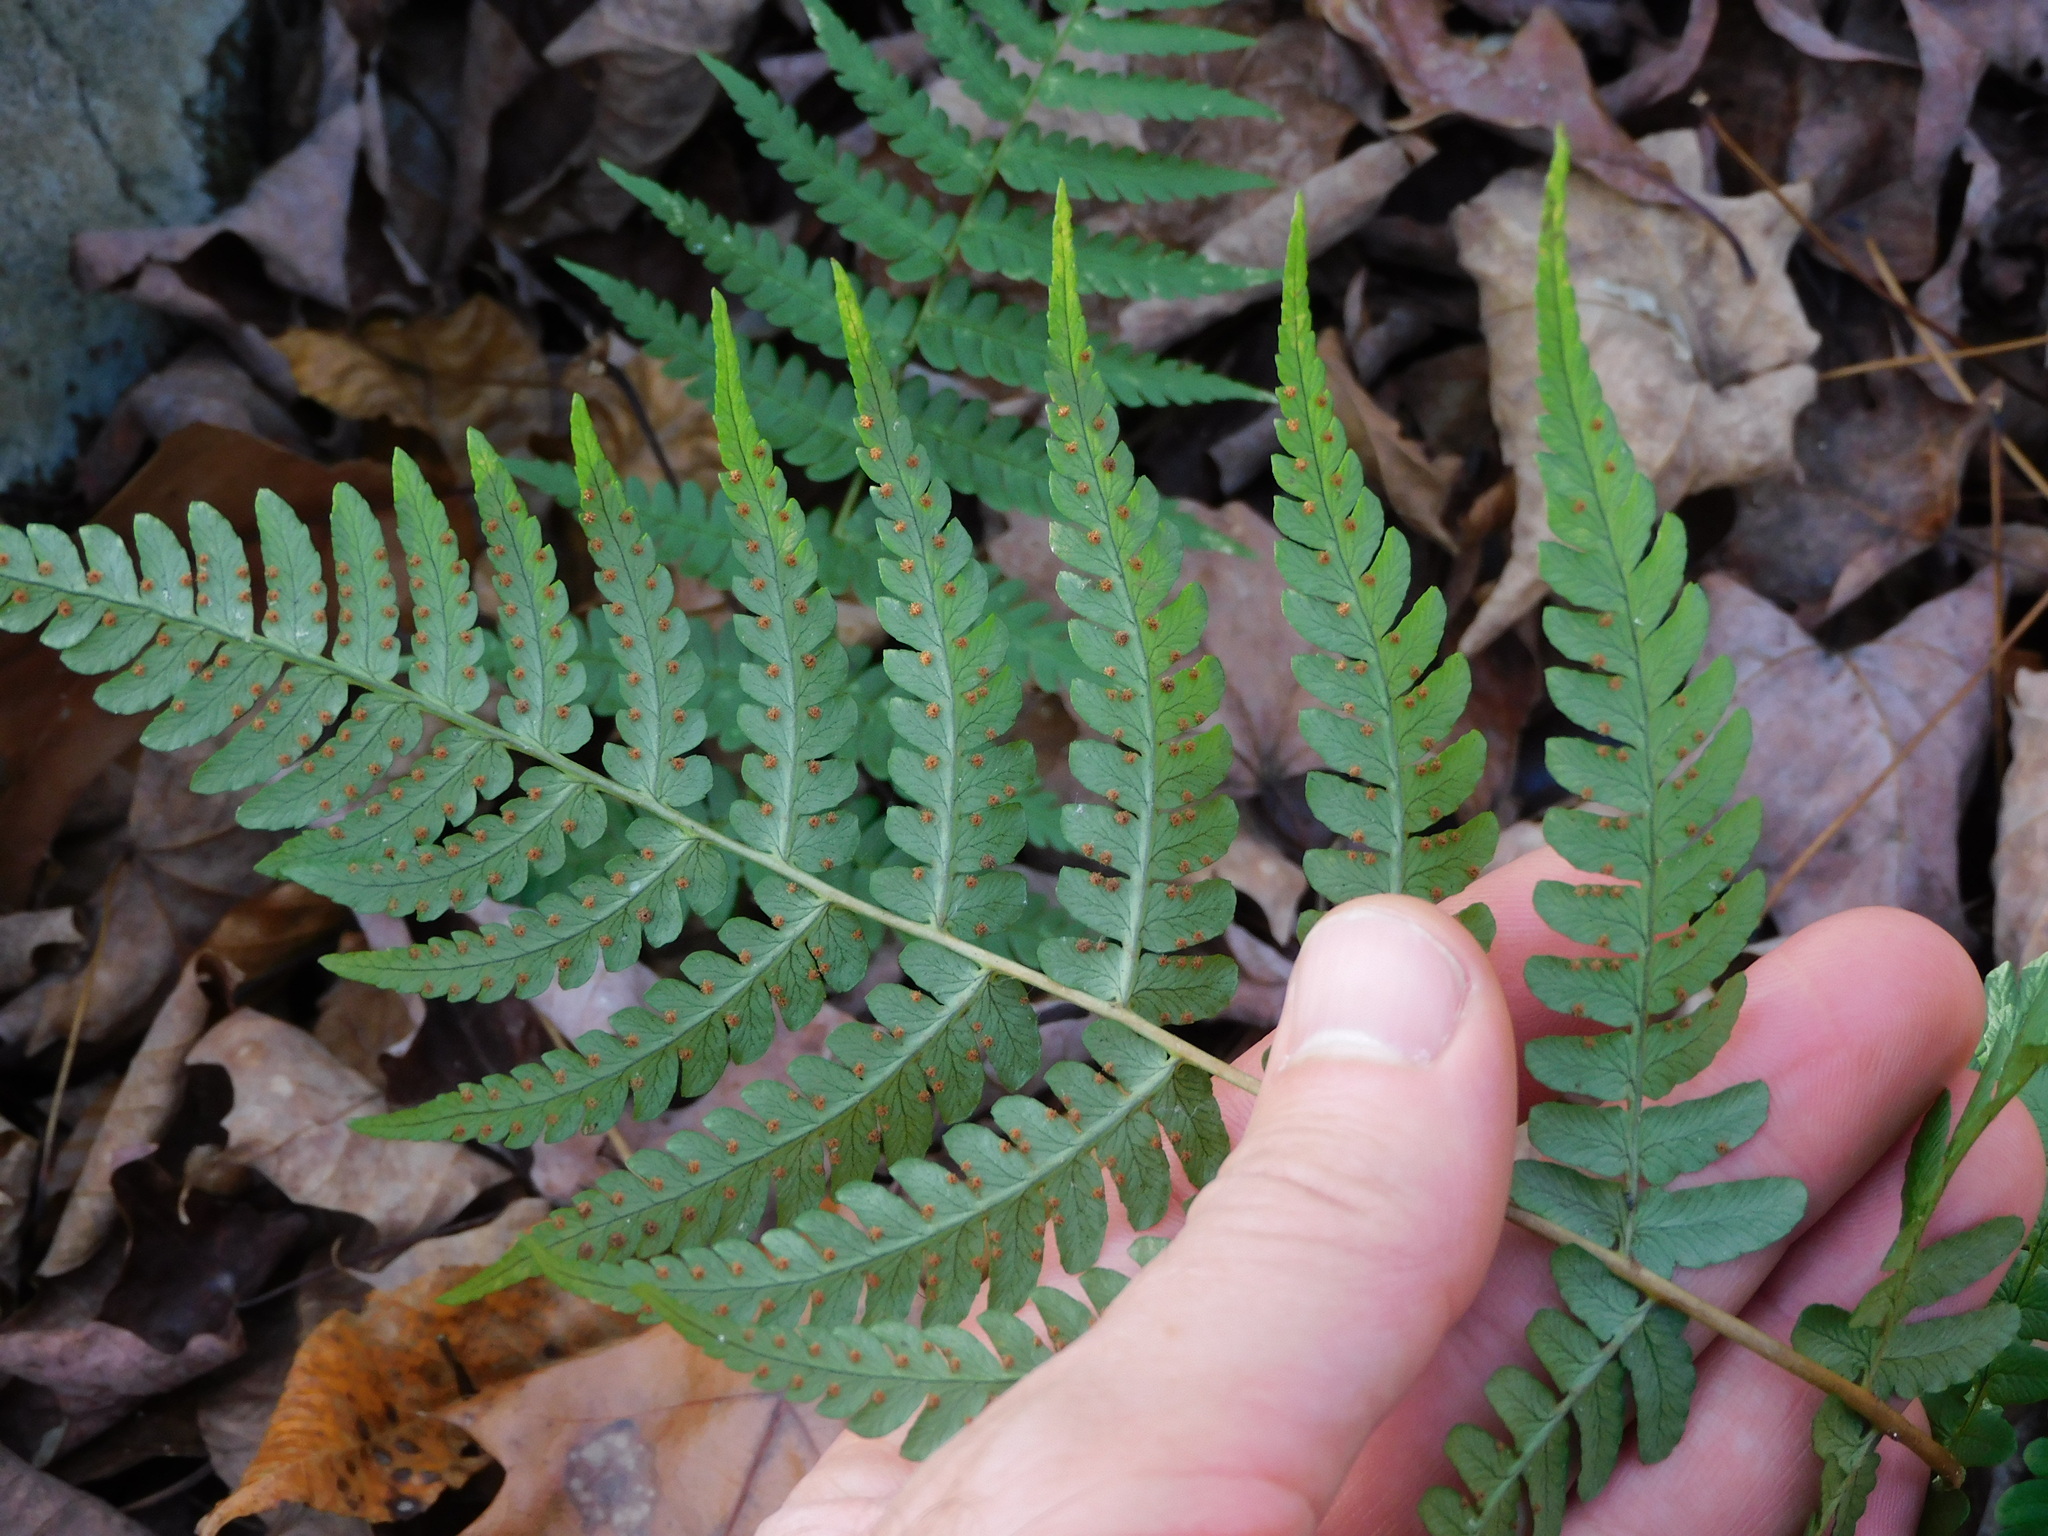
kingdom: Plantae
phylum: Tracheophyta
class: Polypodiopsida
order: Polypodiales
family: Dryopteridaceae
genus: Dryopteris
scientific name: Dryopteris marginalis
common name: Marginal wood fern
